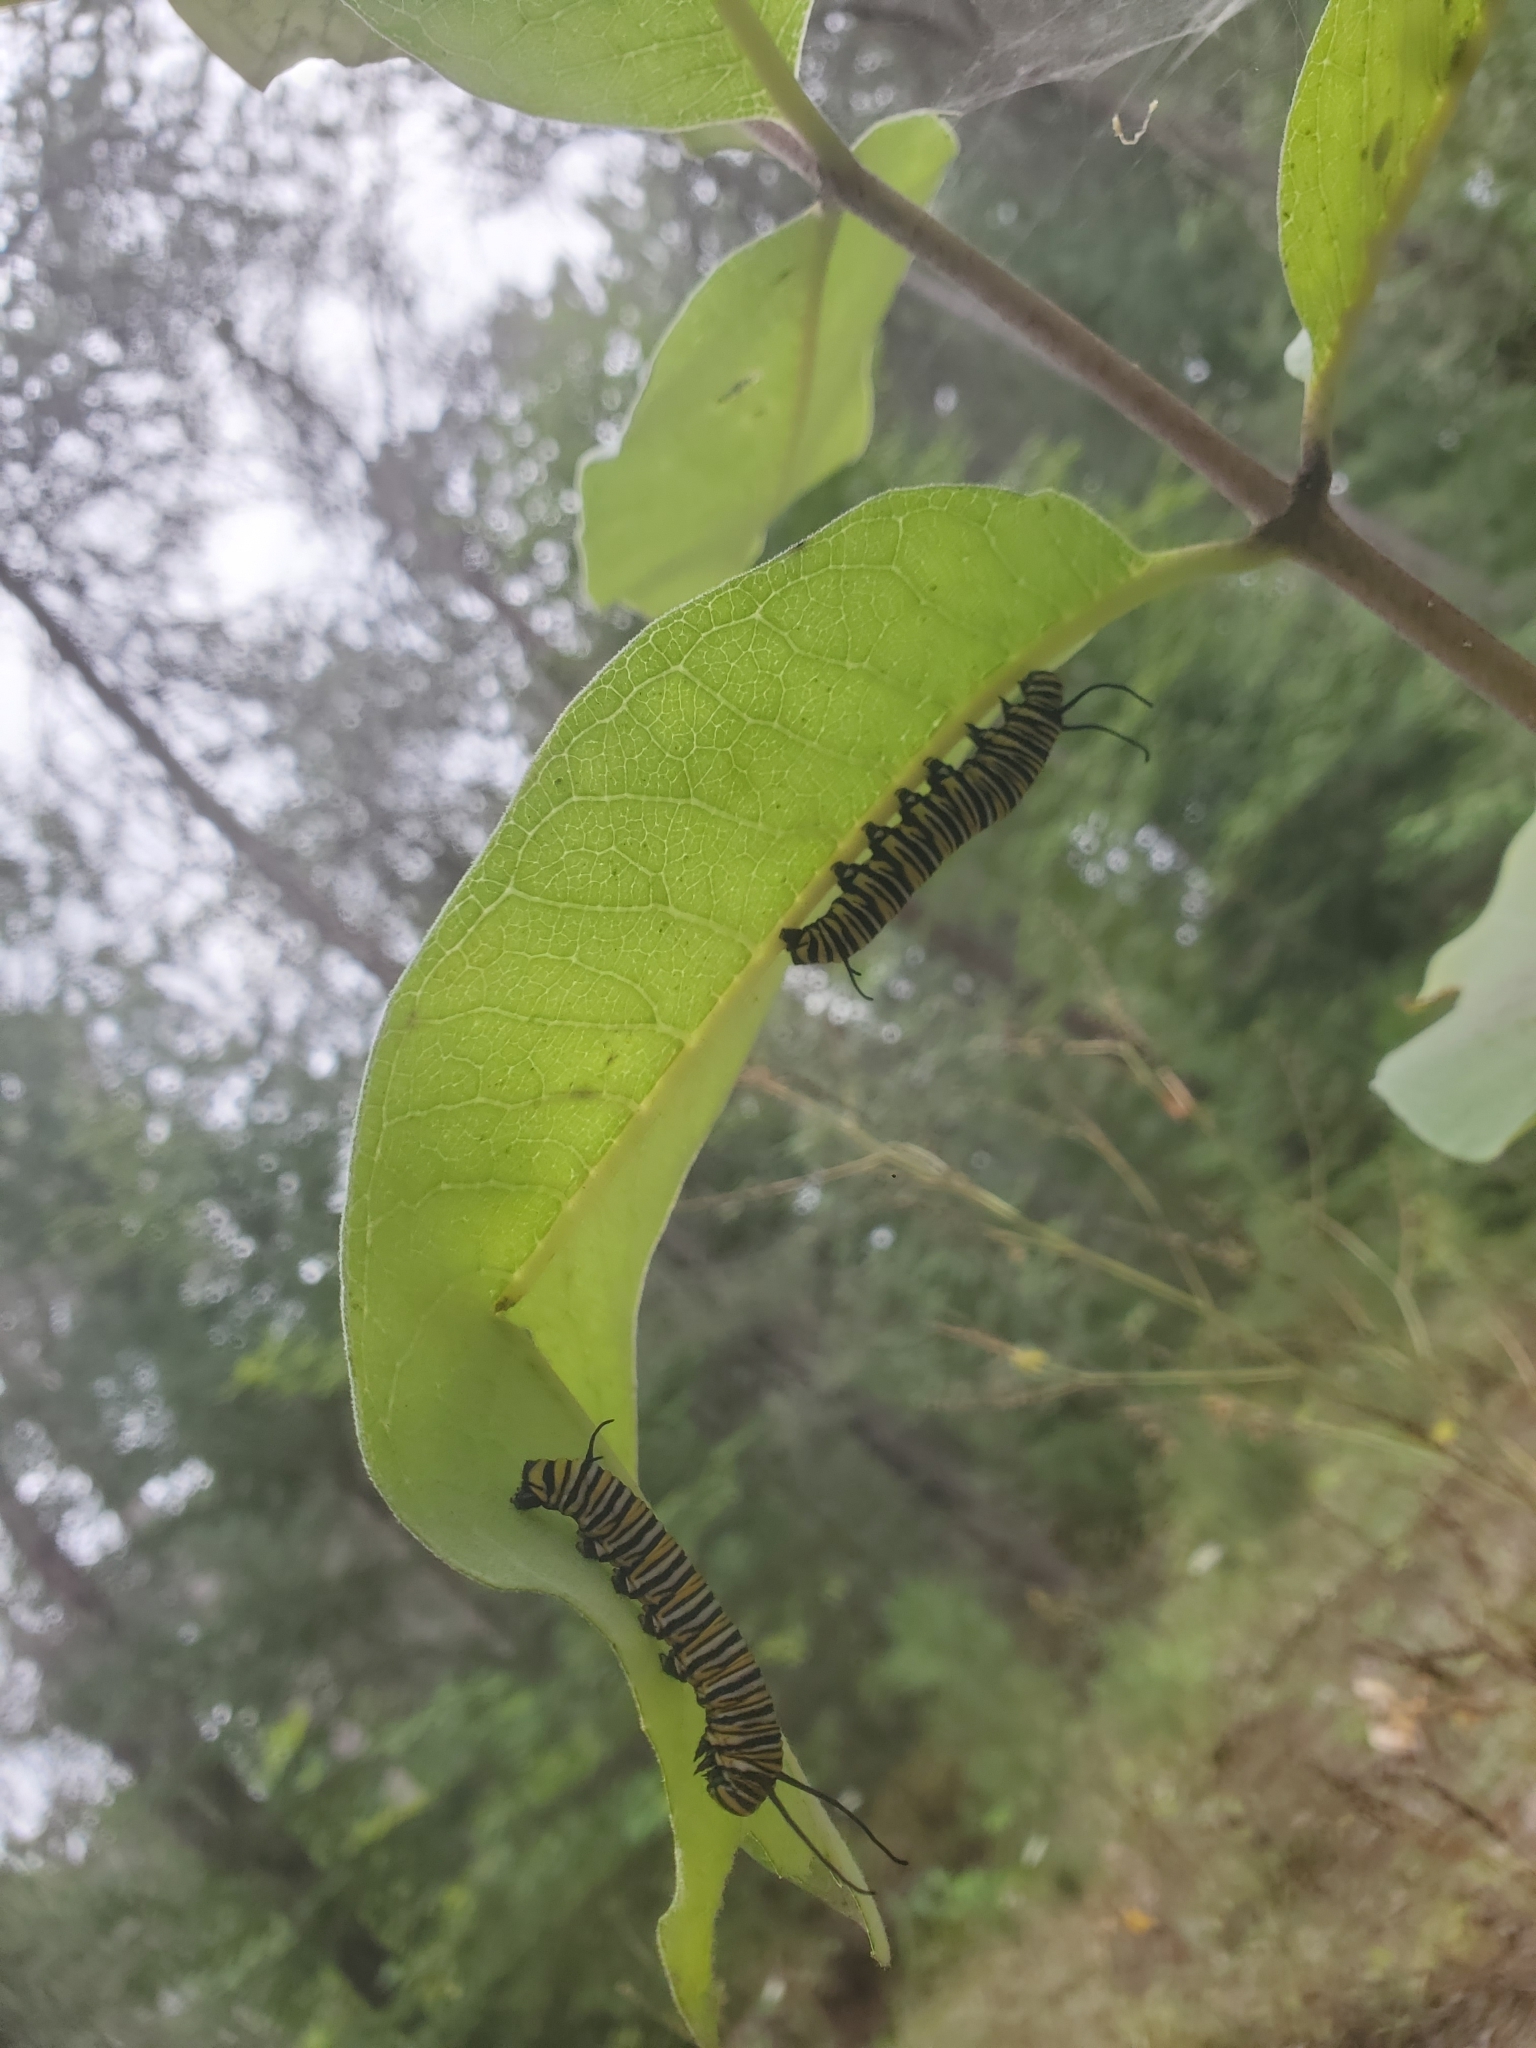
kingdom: Animalia
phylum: Arthropoda
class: Insecta
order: Lepidoptera
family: Nymphalidae
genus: Danaus
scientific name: Danaus plexippus
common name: Monarch
